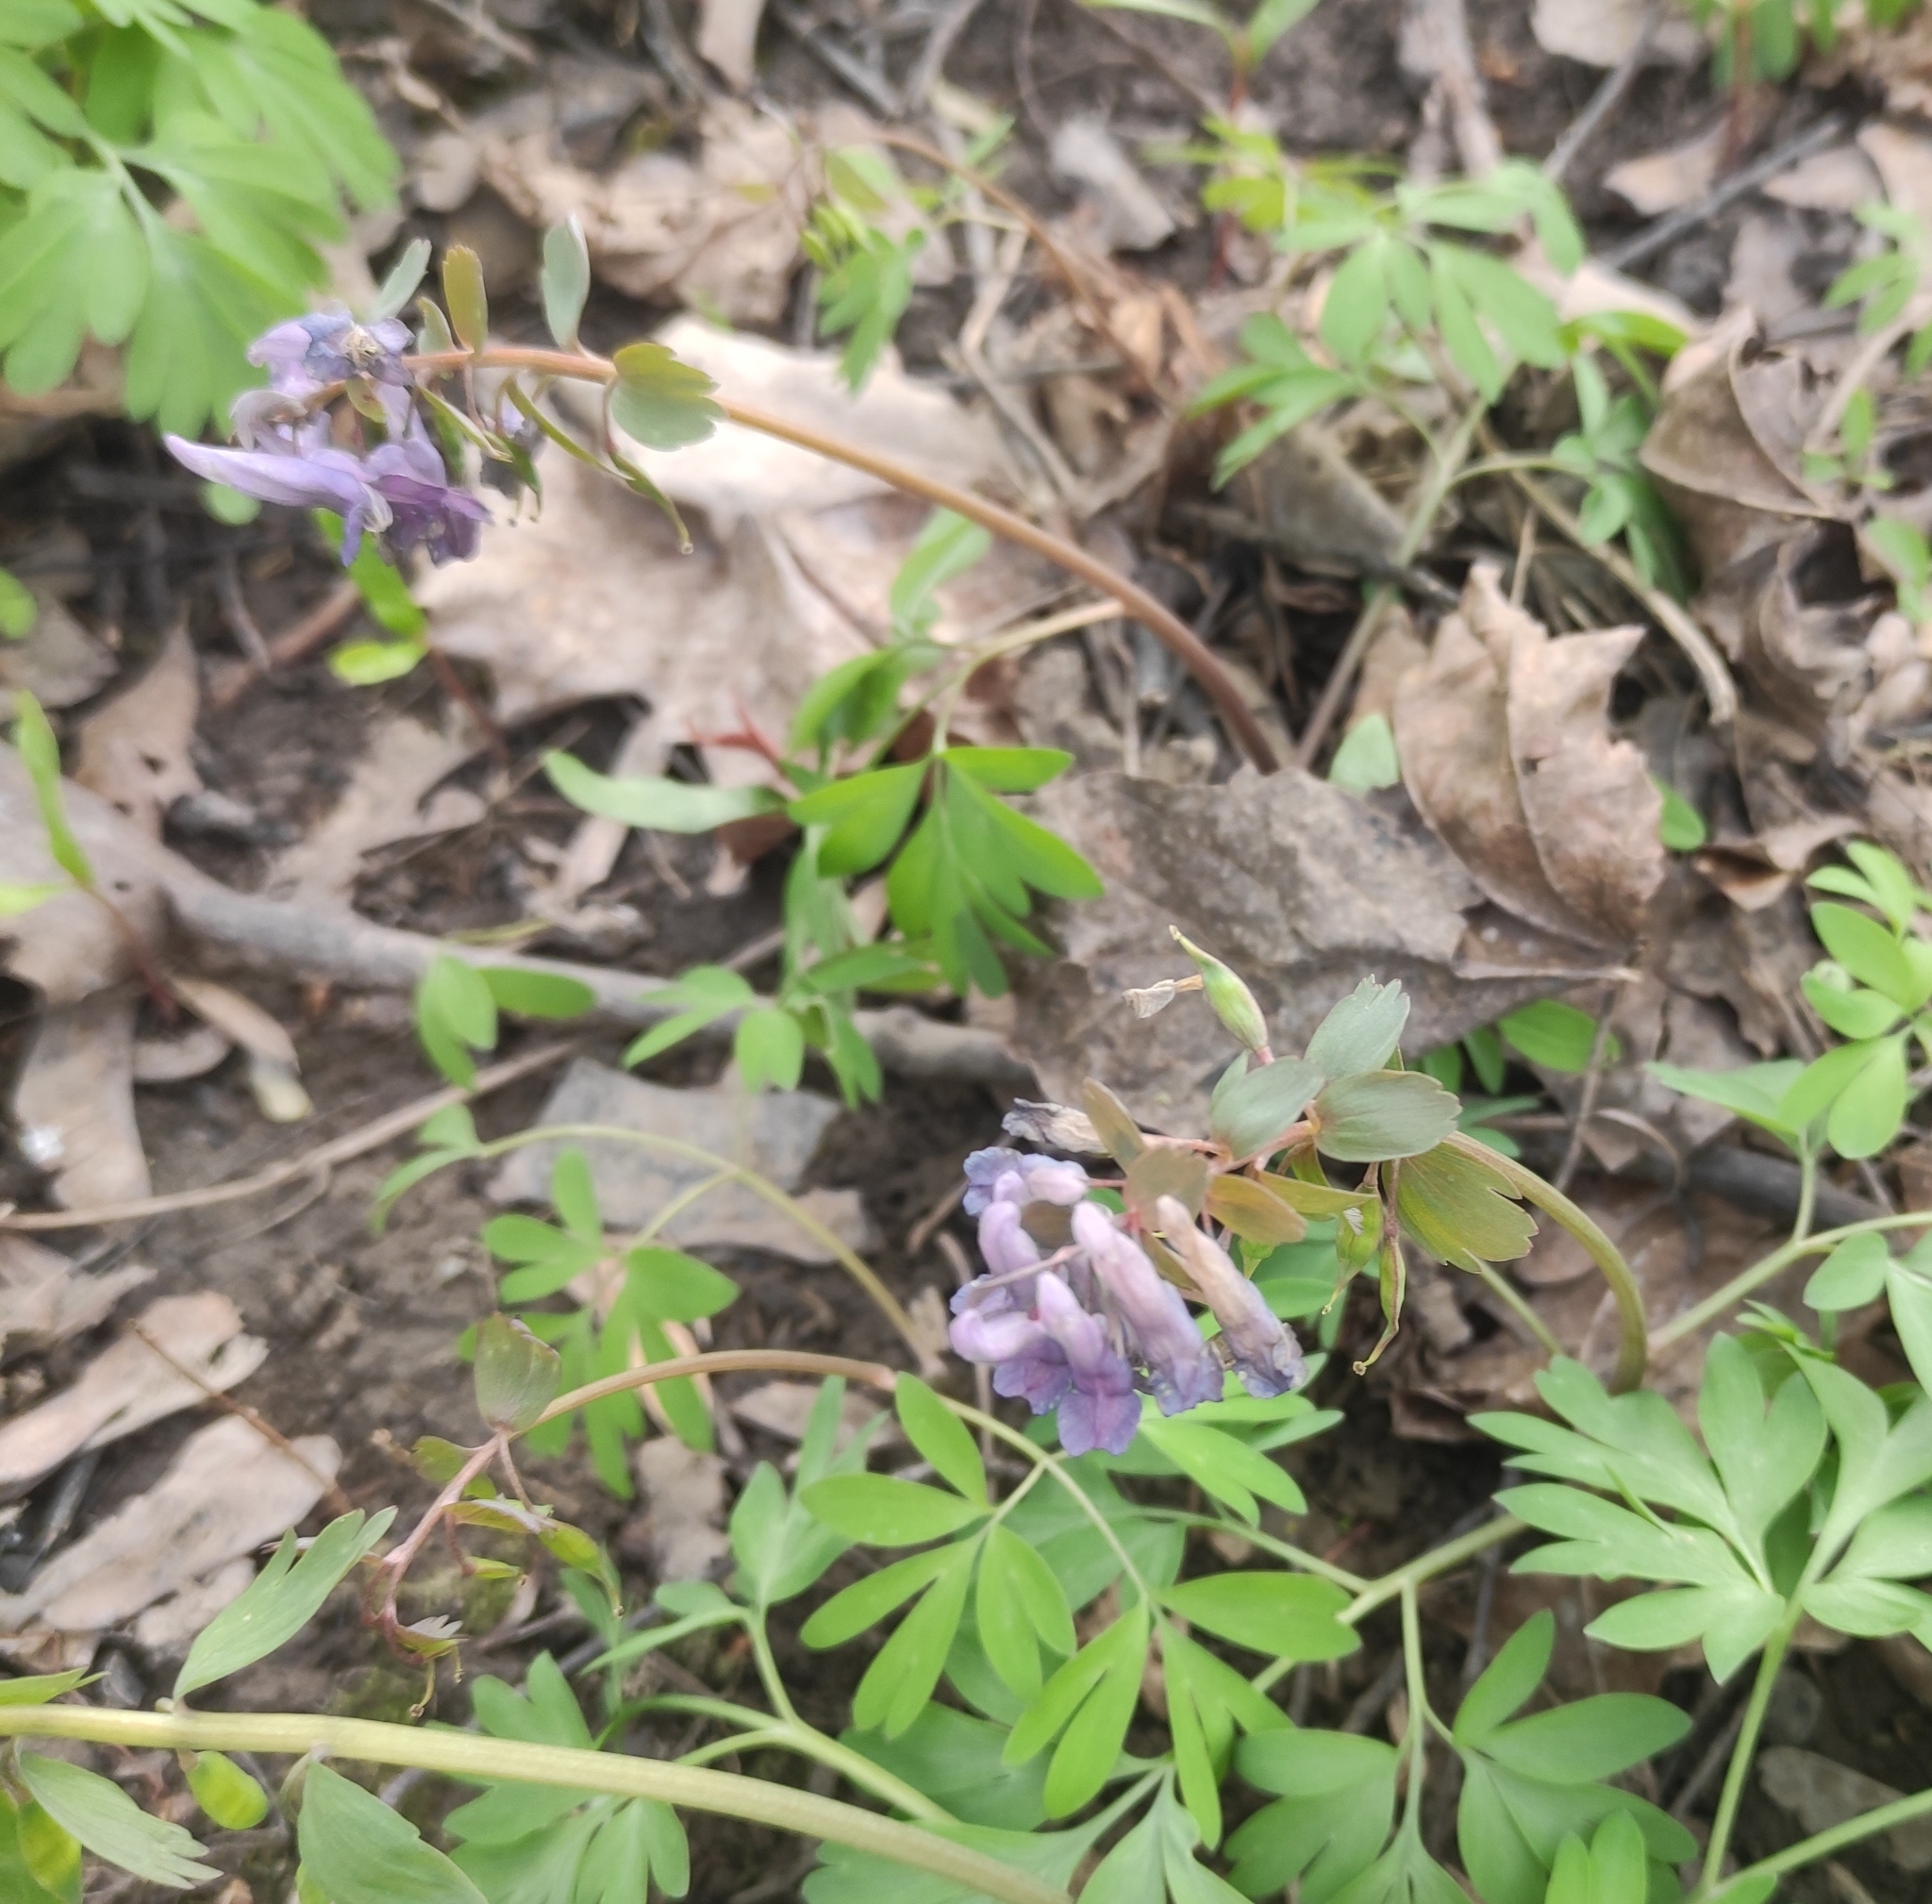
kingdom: Plantae
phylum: Tracheophyta
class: Magnoliopsida
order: Ranunculales
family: Papaveraceae
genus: Corydalis
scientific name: Corydalis solida
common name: Bird-in-a-bush
